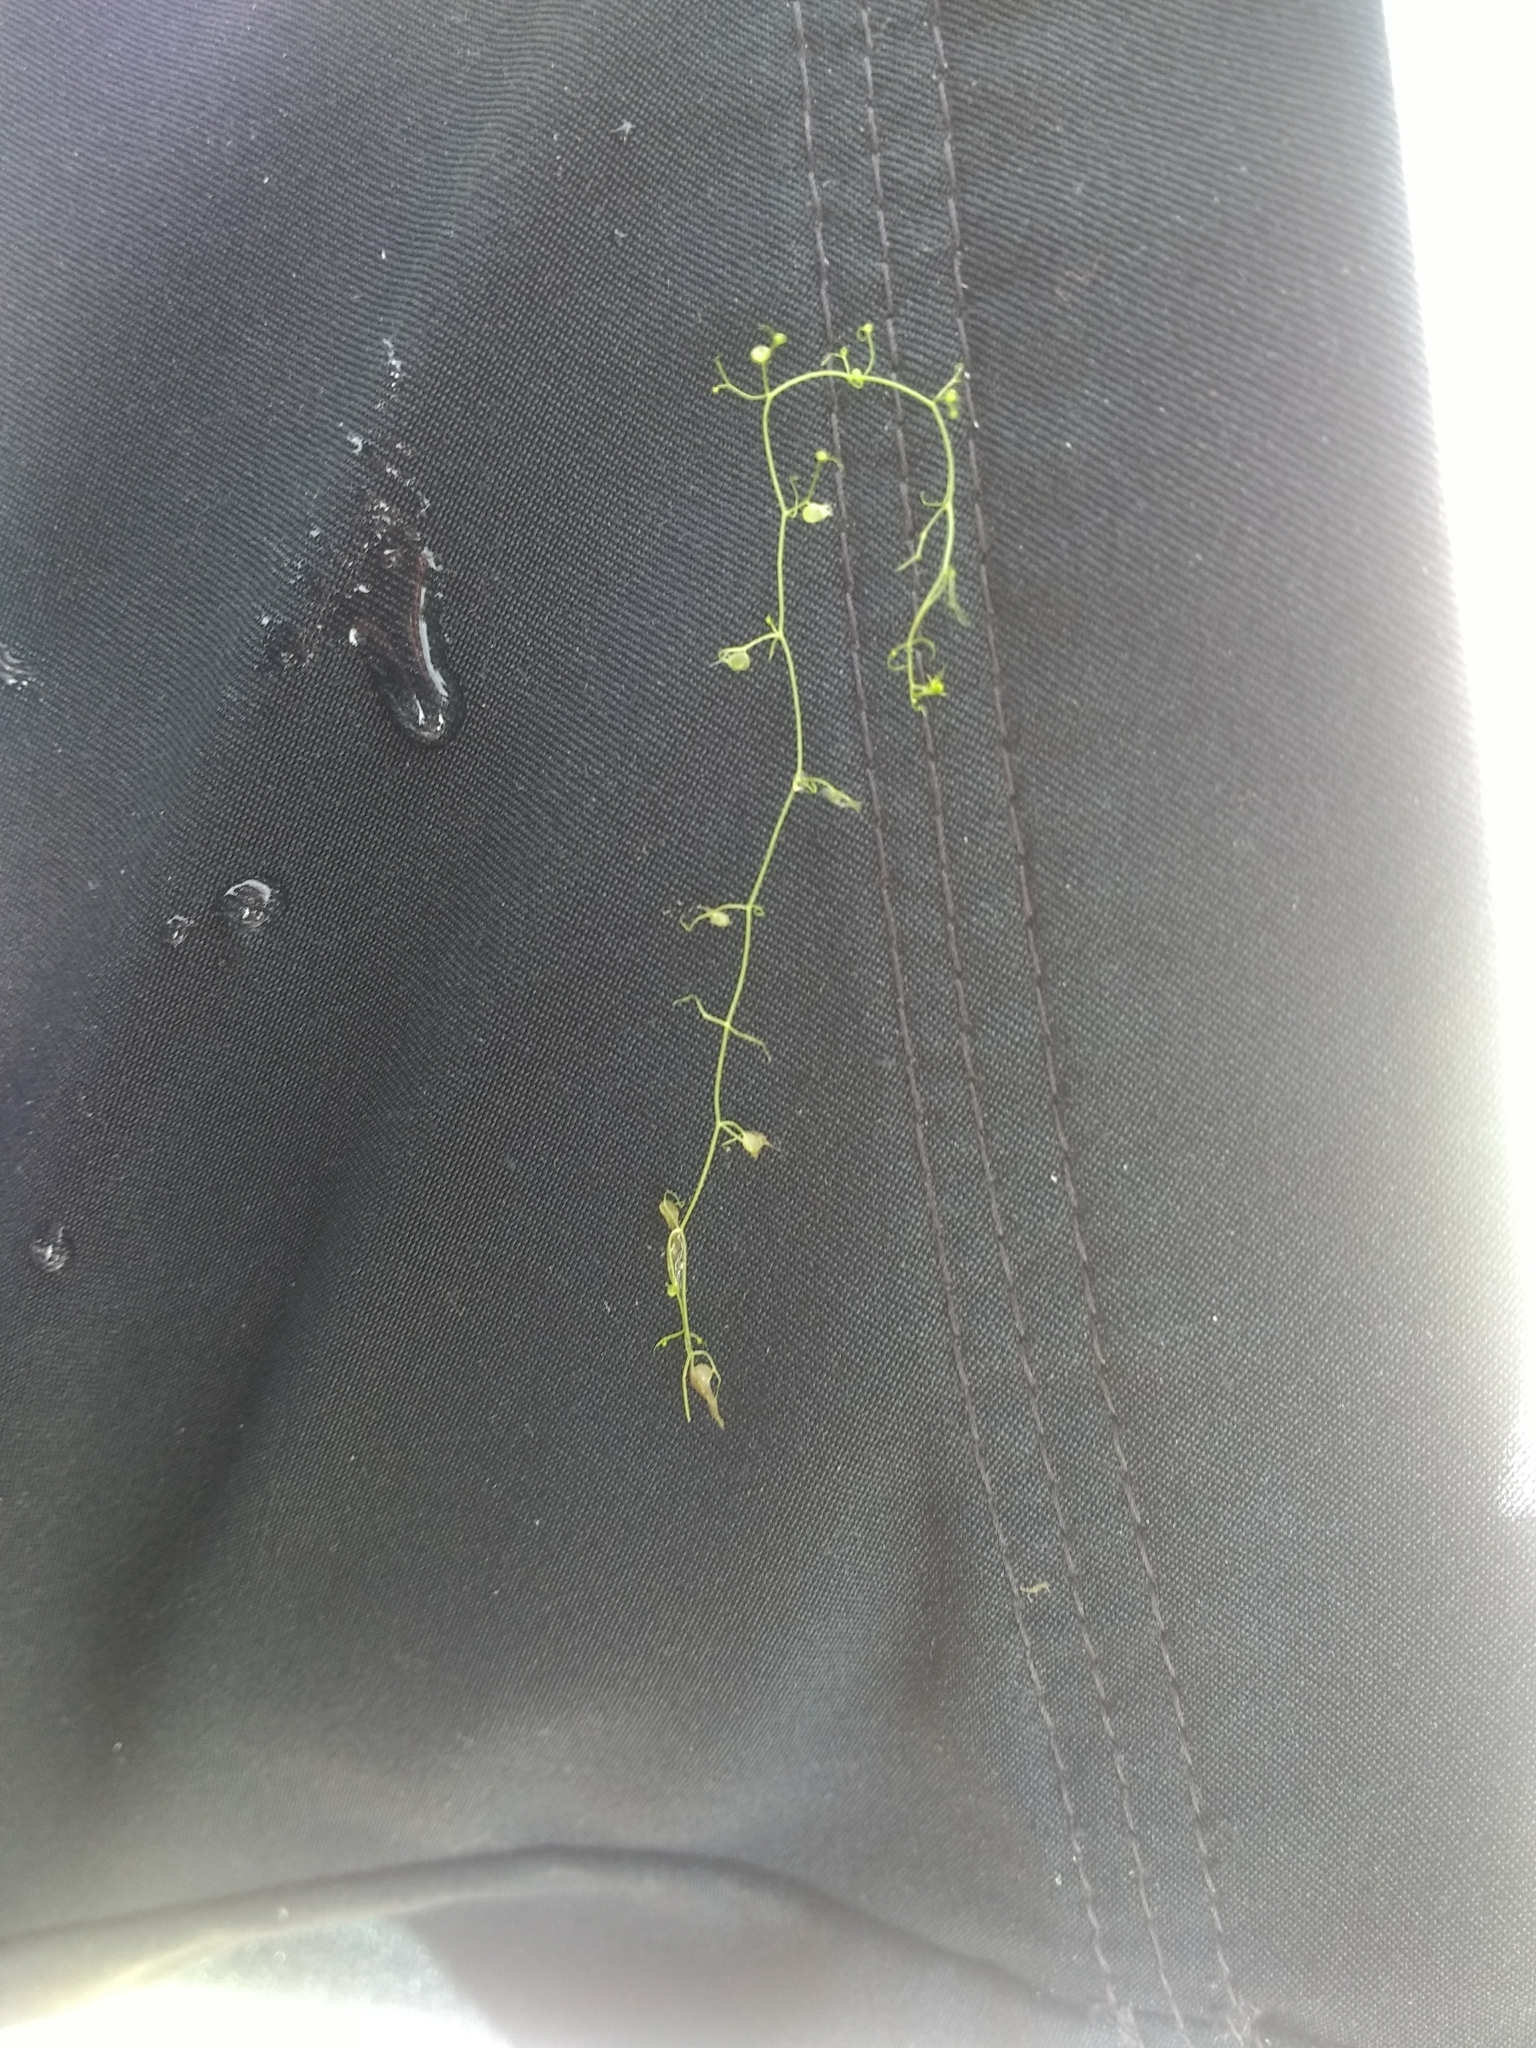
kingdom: Plantae
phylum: Tracheophyta
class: Magnoliopsida
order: Lamiales
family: Lentibulariaceae
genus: Utricularia
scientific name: Utricularia gibba
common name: Humped bladderwort
